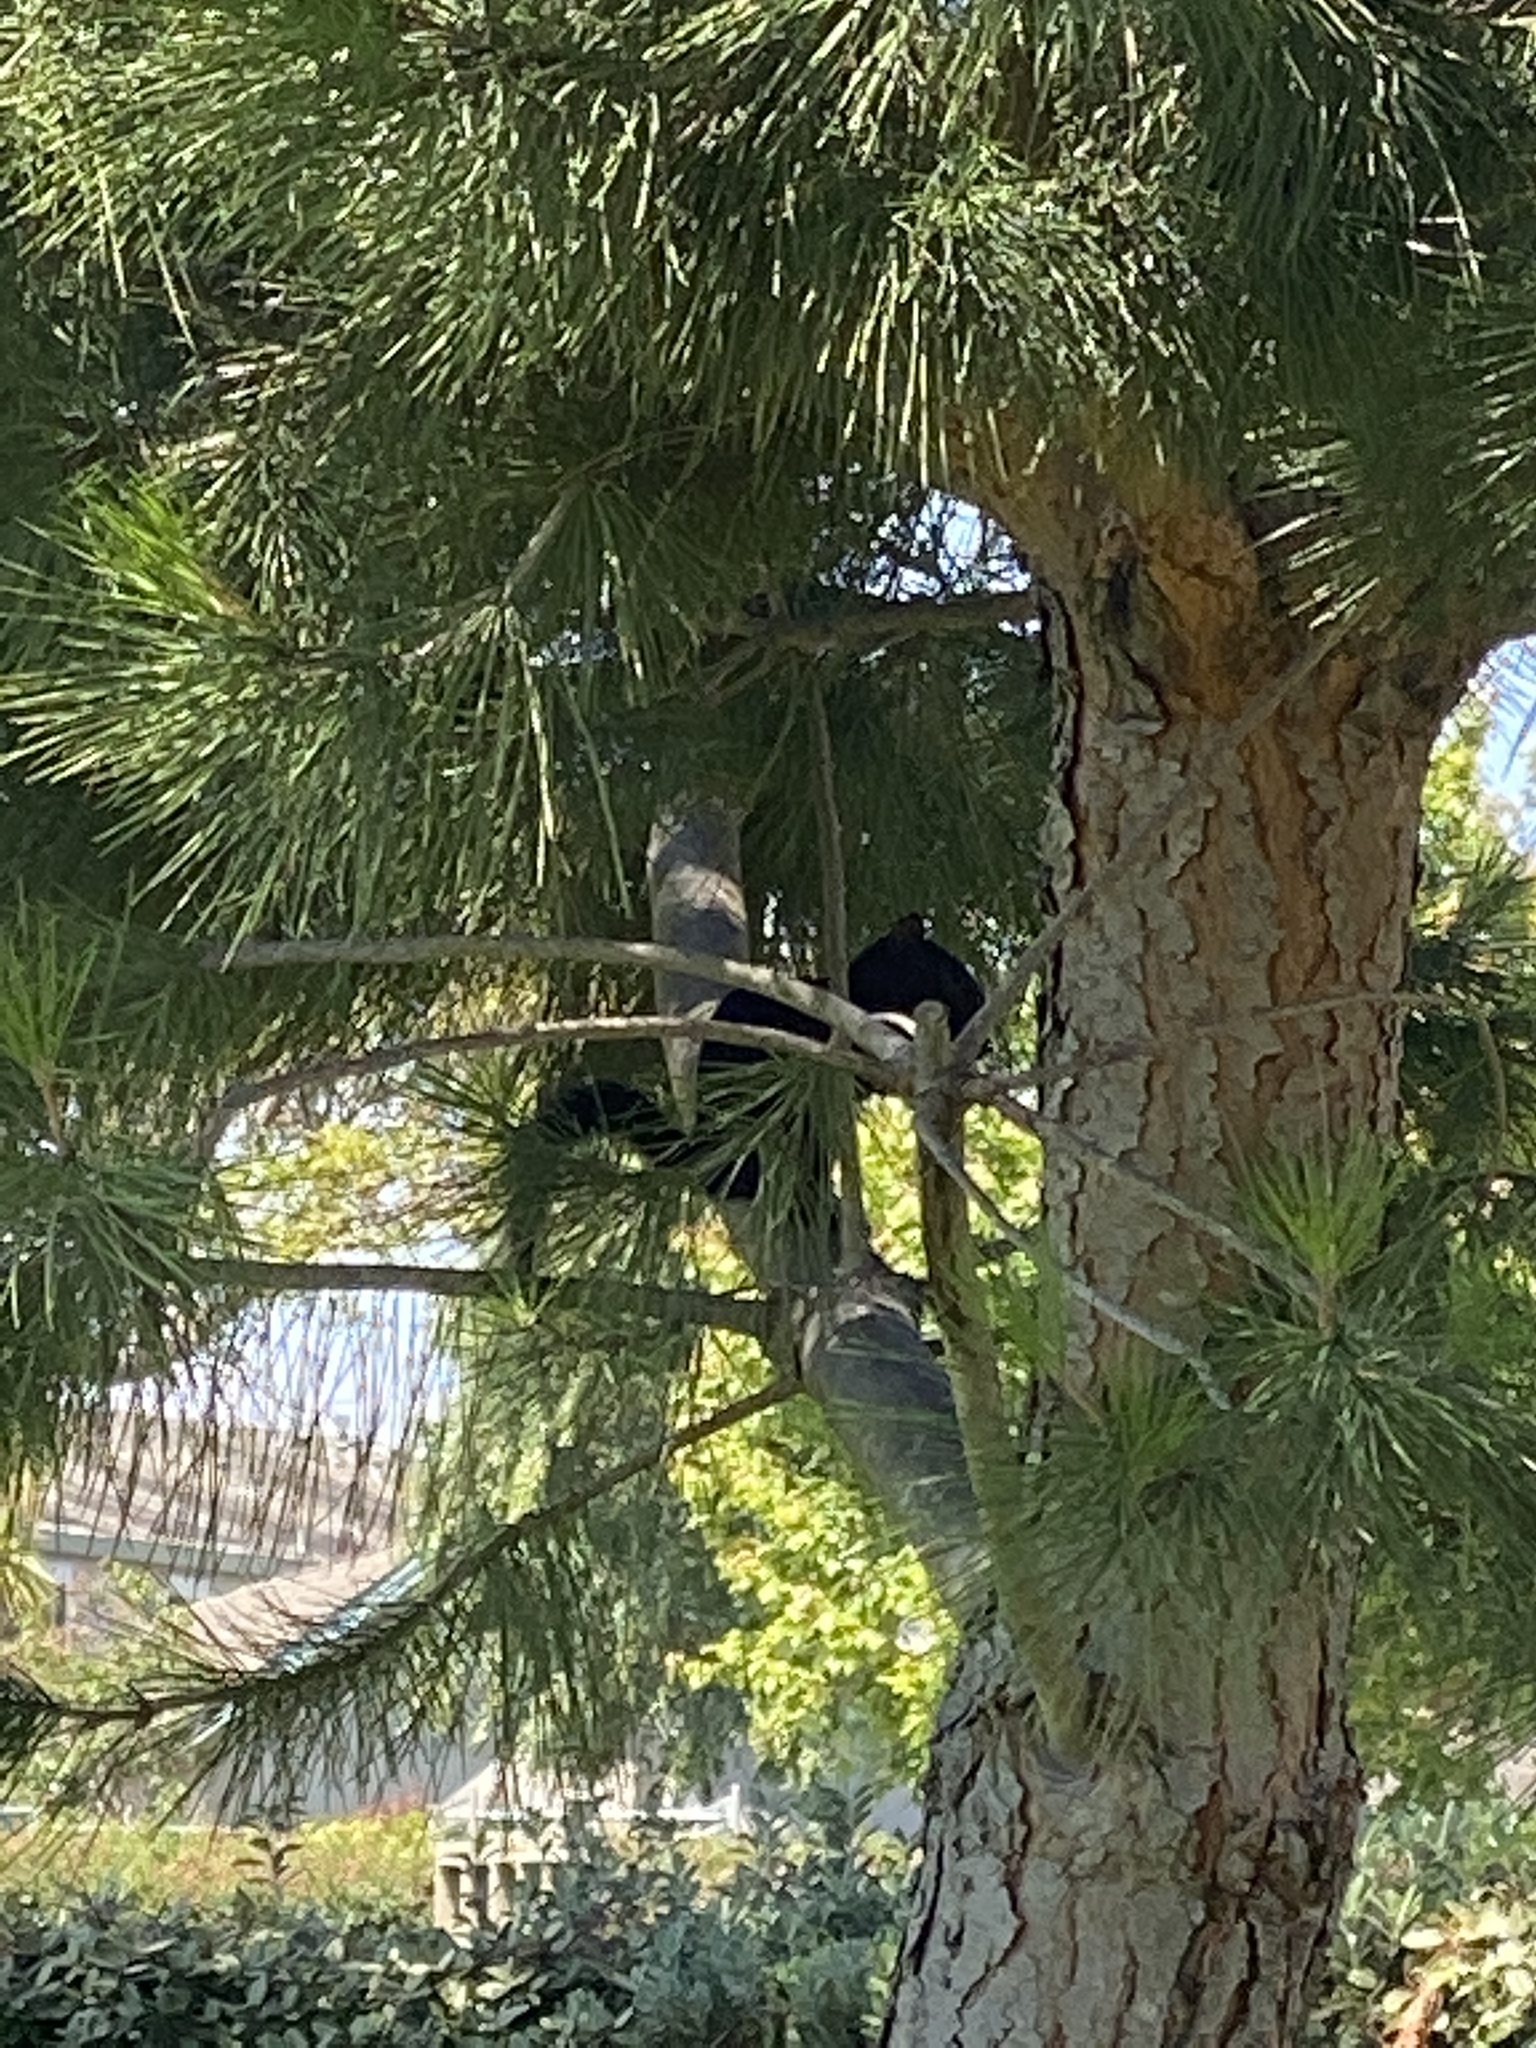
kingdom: Animalia
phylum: Chordata
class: Mammalia
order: Rodentia
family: Sciuridae
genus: Sciurus
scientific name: Sciurus carolinensis
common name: Eastern gray squirrel
